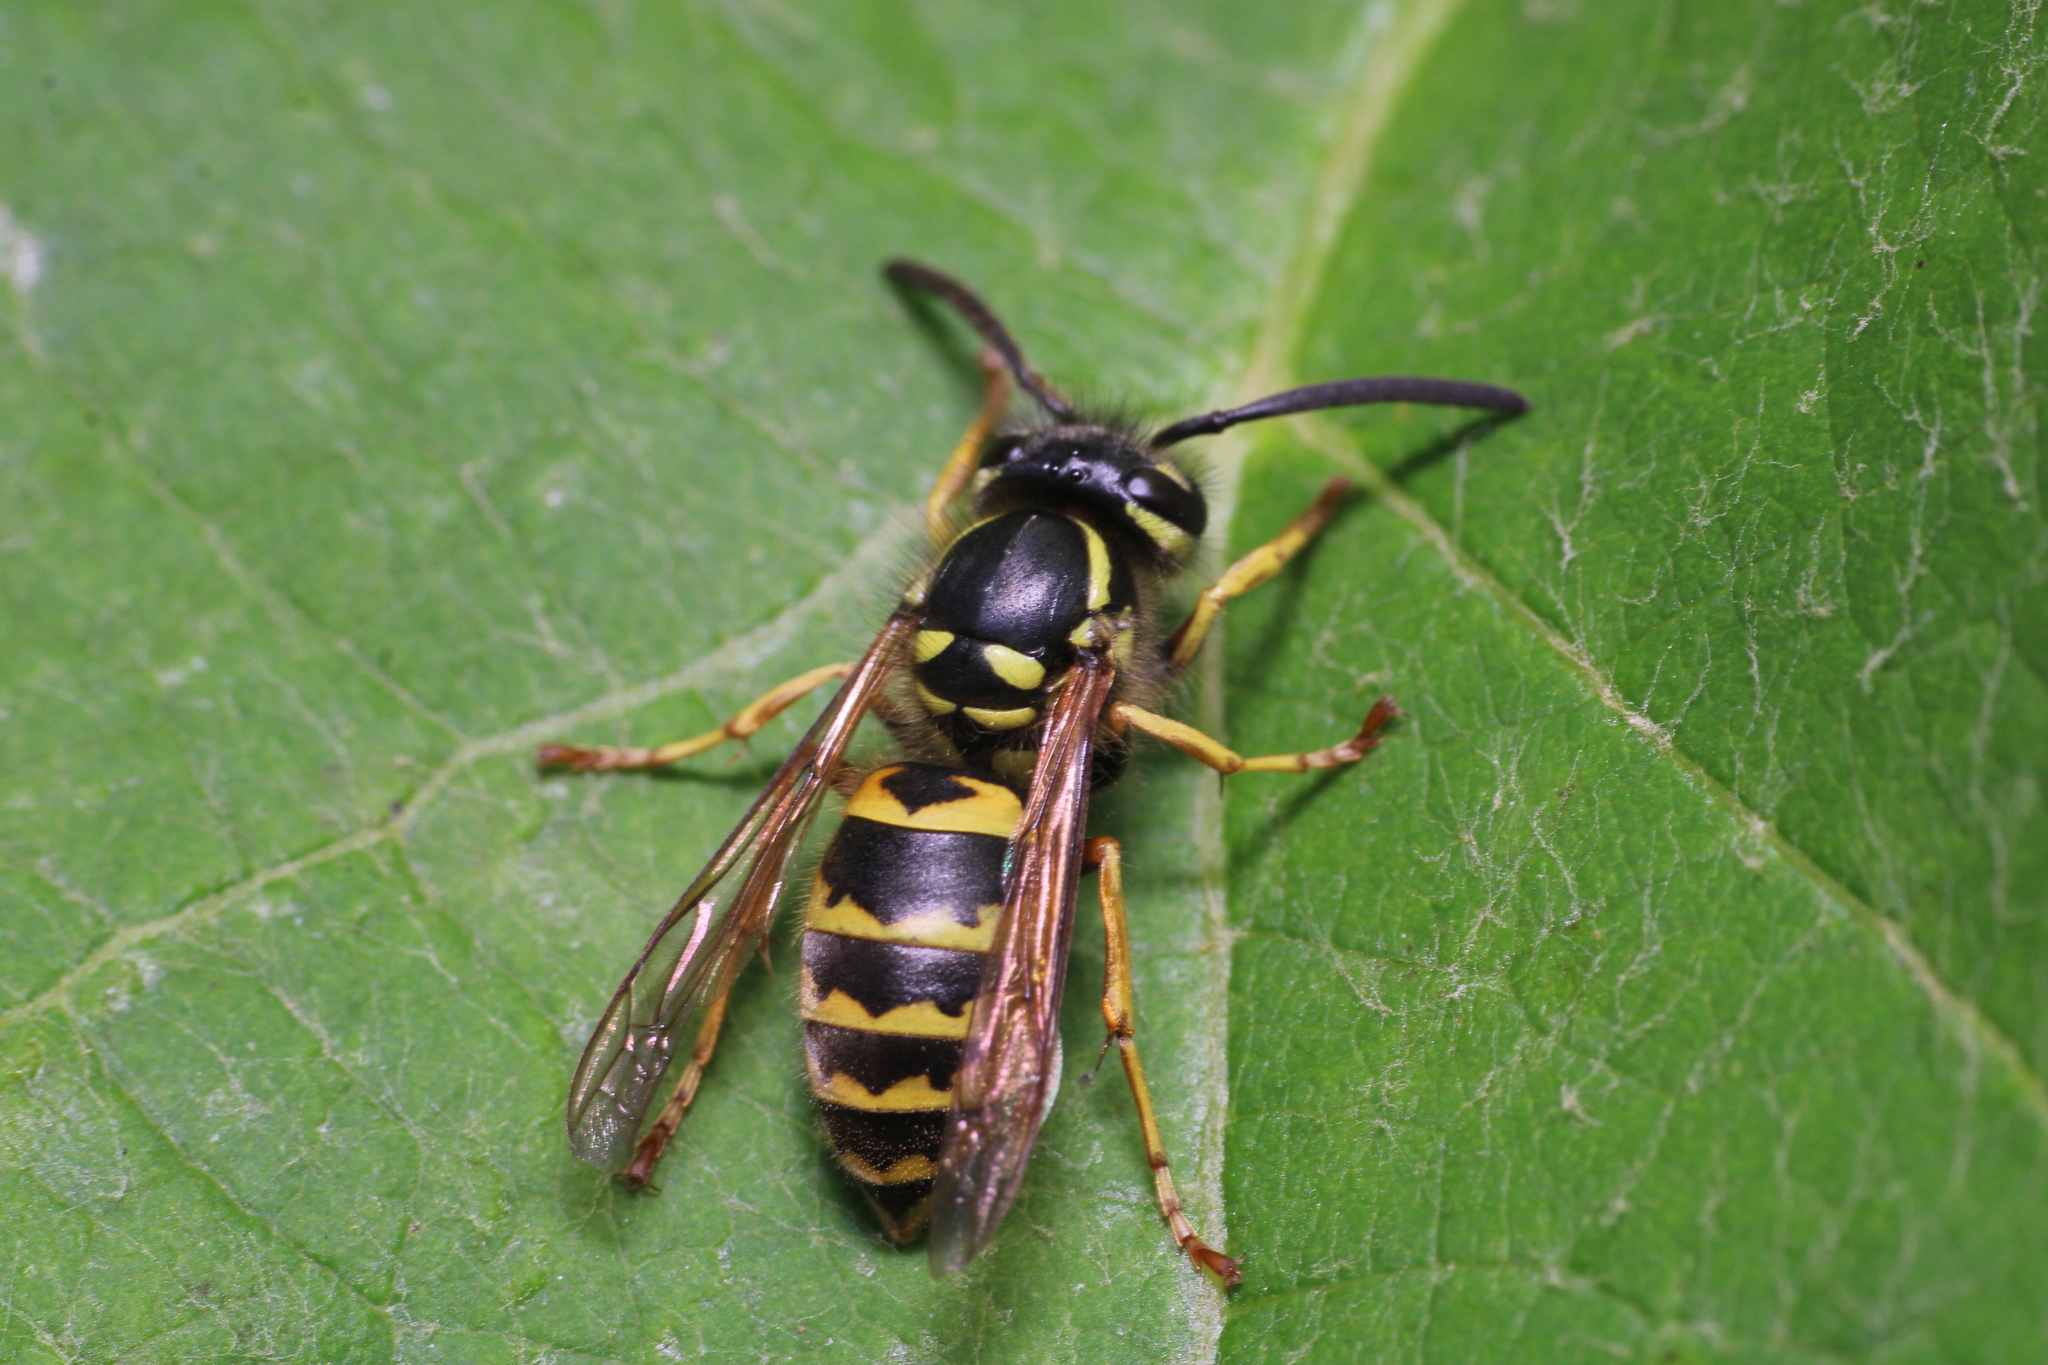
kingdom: Animalia
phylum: Arthropoda
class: Insecta
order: Hymenoptera
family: Eumenidae
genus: Polistes
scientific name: Polistes dominula
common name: Paper wasp
